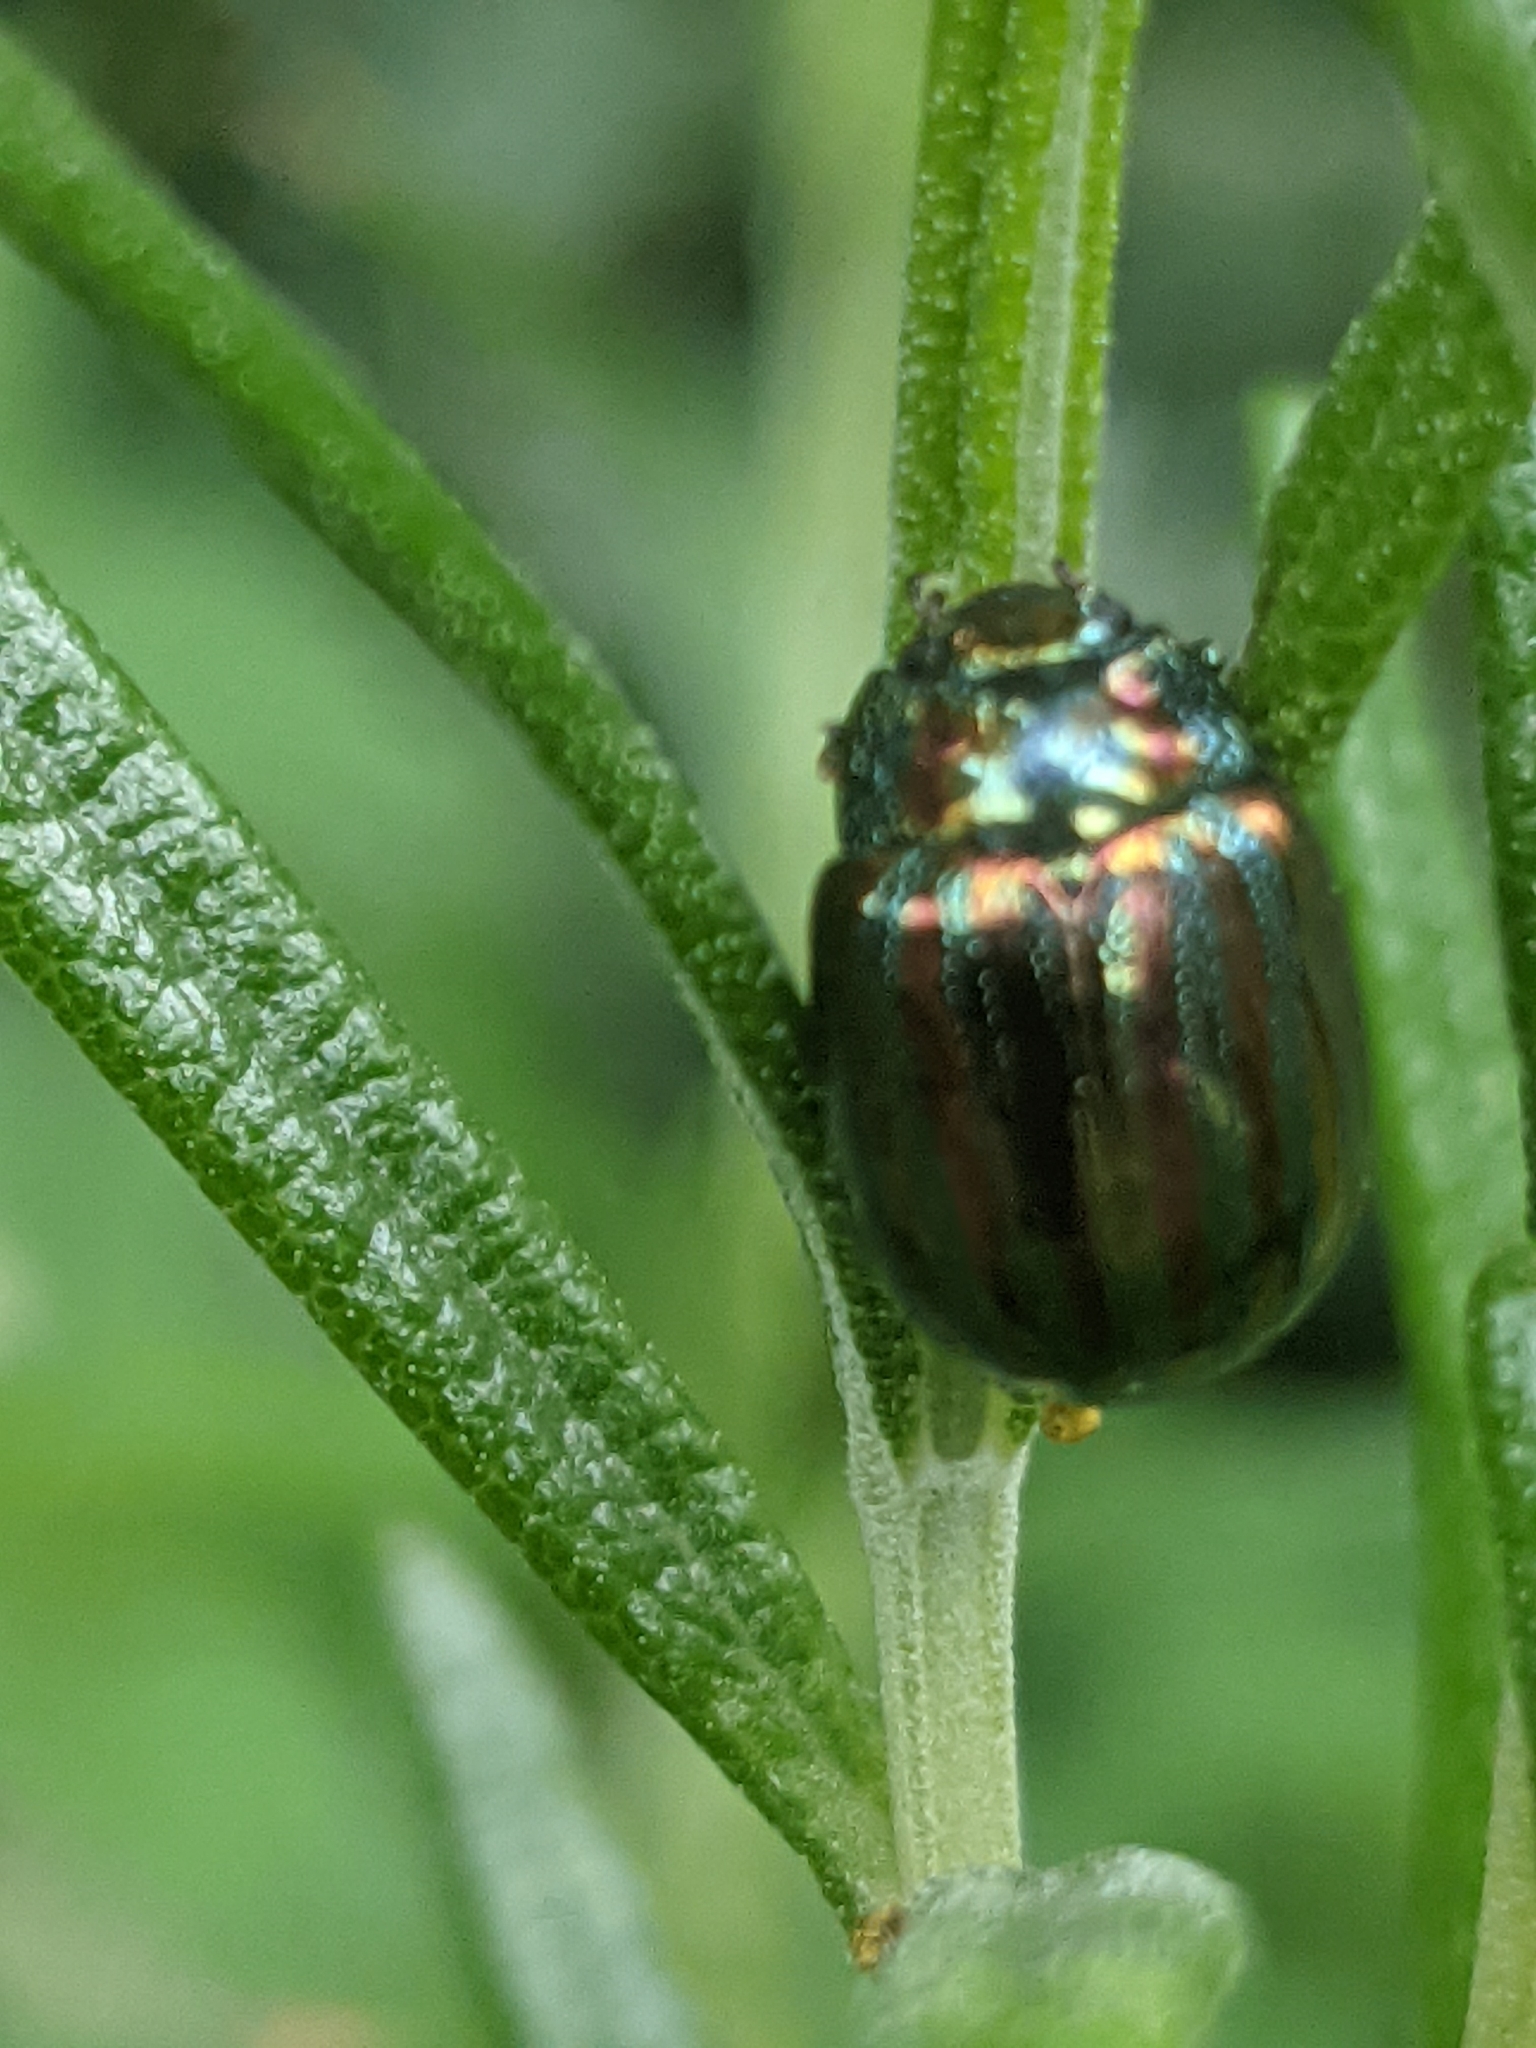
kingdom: Animalia
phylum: Arthropoda
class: Insecta
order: Coleoptera
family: Chrysomelidae
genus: Chrysolina
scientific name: Chrysolina americana
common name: Rosemary beetle
